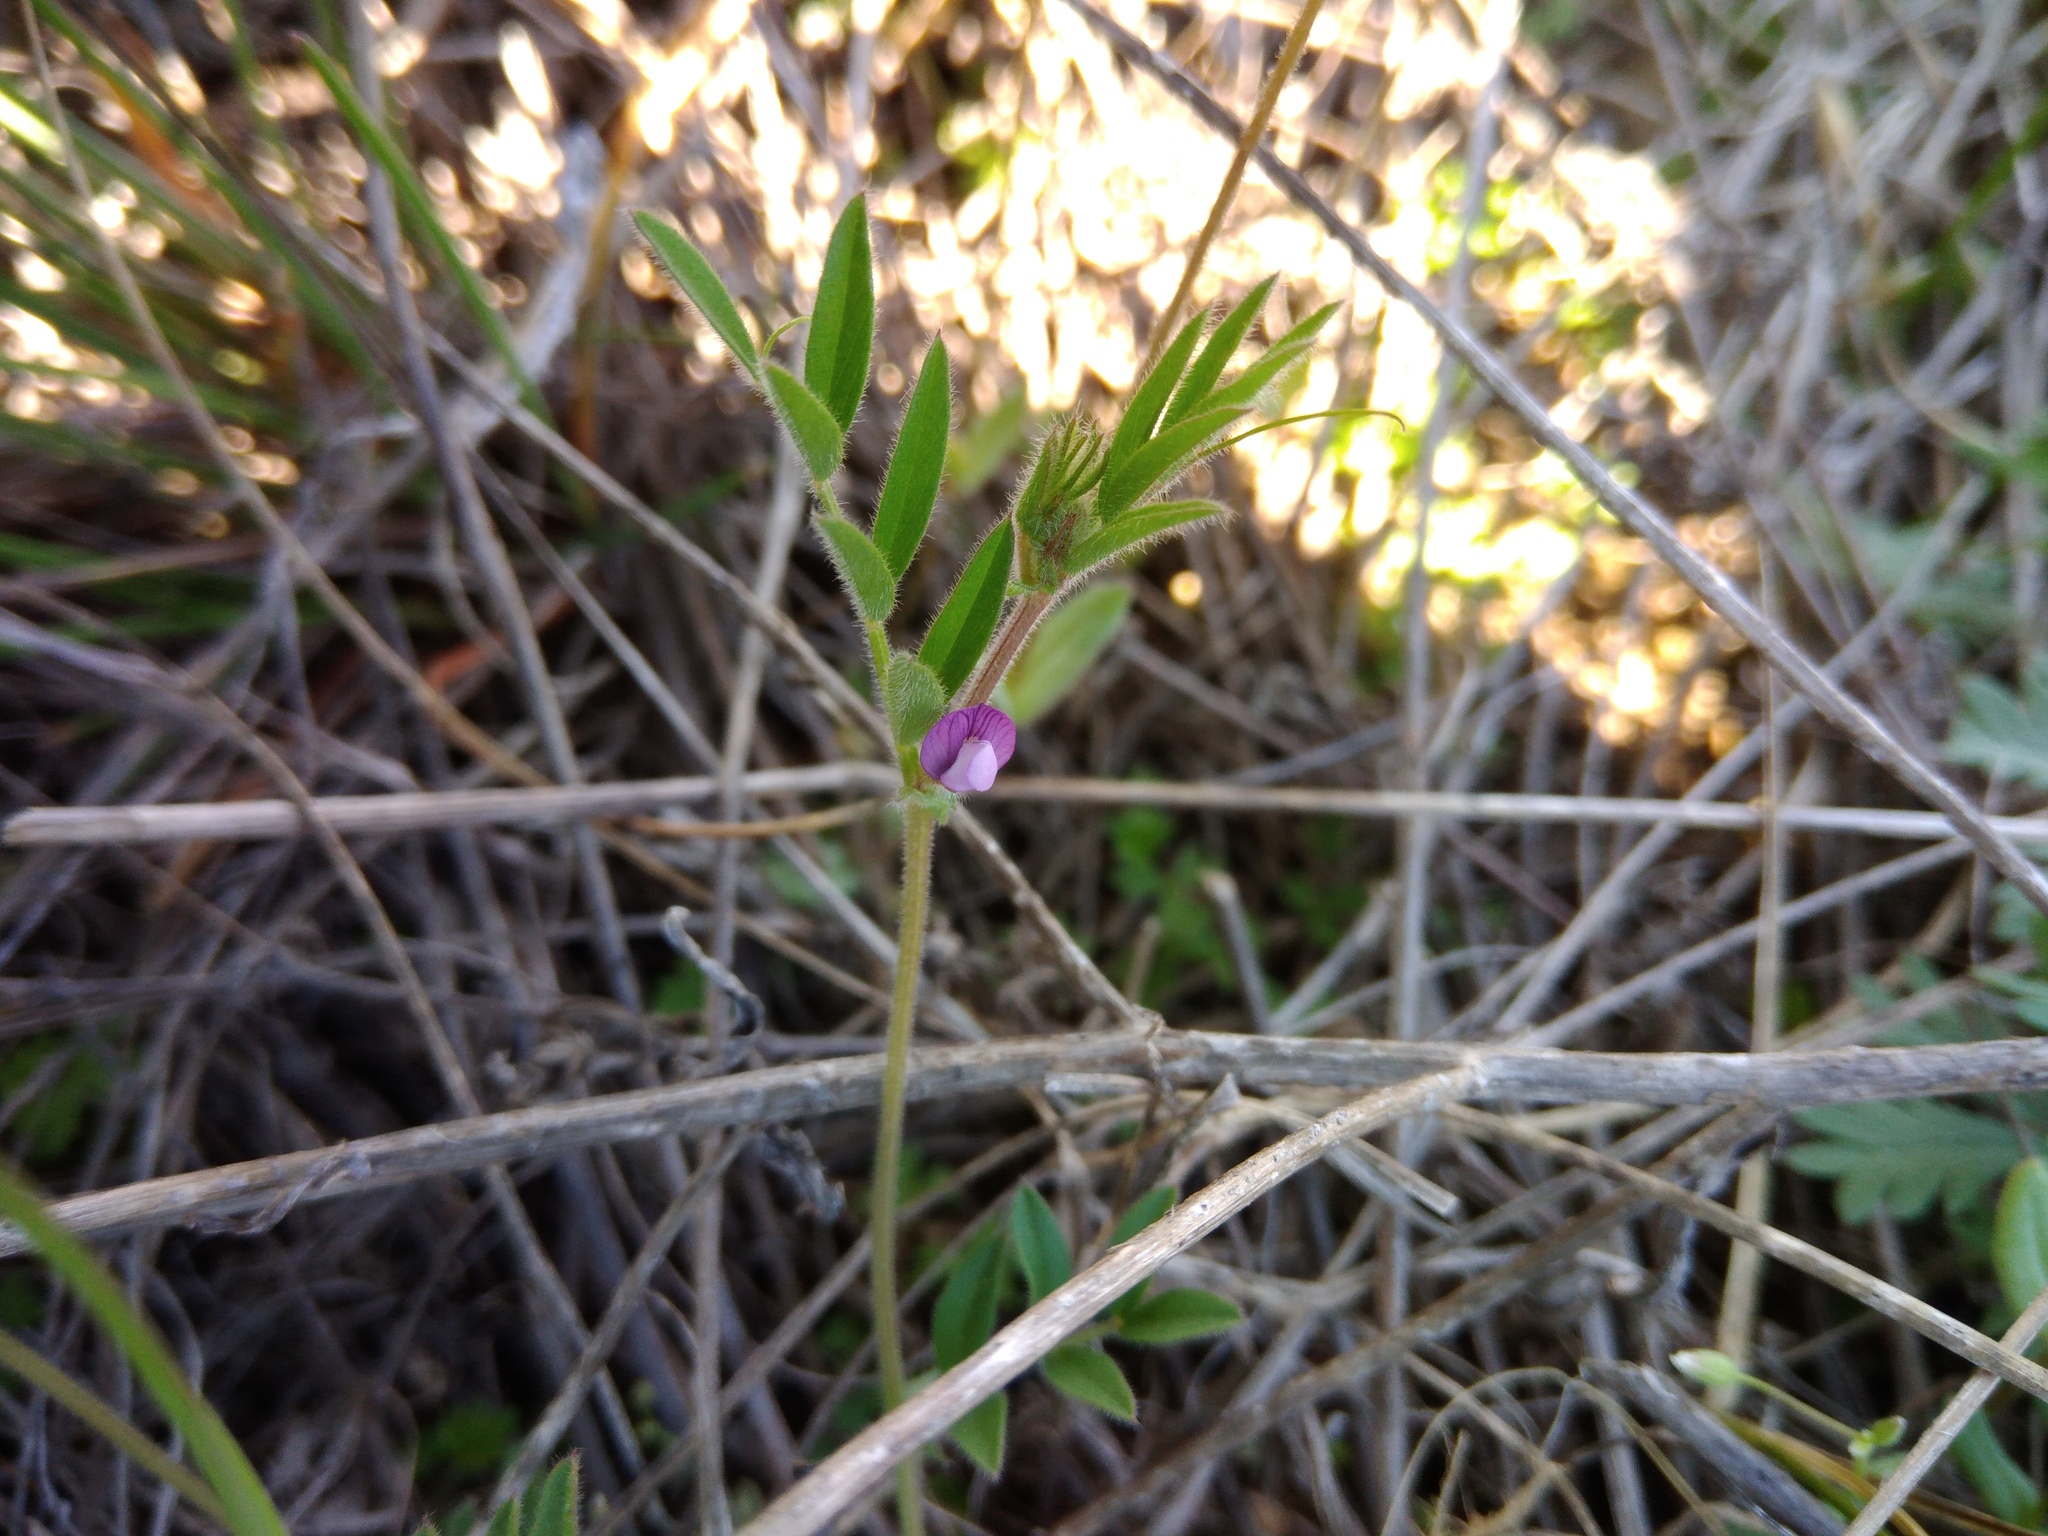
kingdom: Plantae
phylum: Tracheophyta
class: Magnoliopsida
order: Fabales
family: Fabaceae
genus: Vicia
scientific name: Vicia lathyroides
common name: Spring vetch
